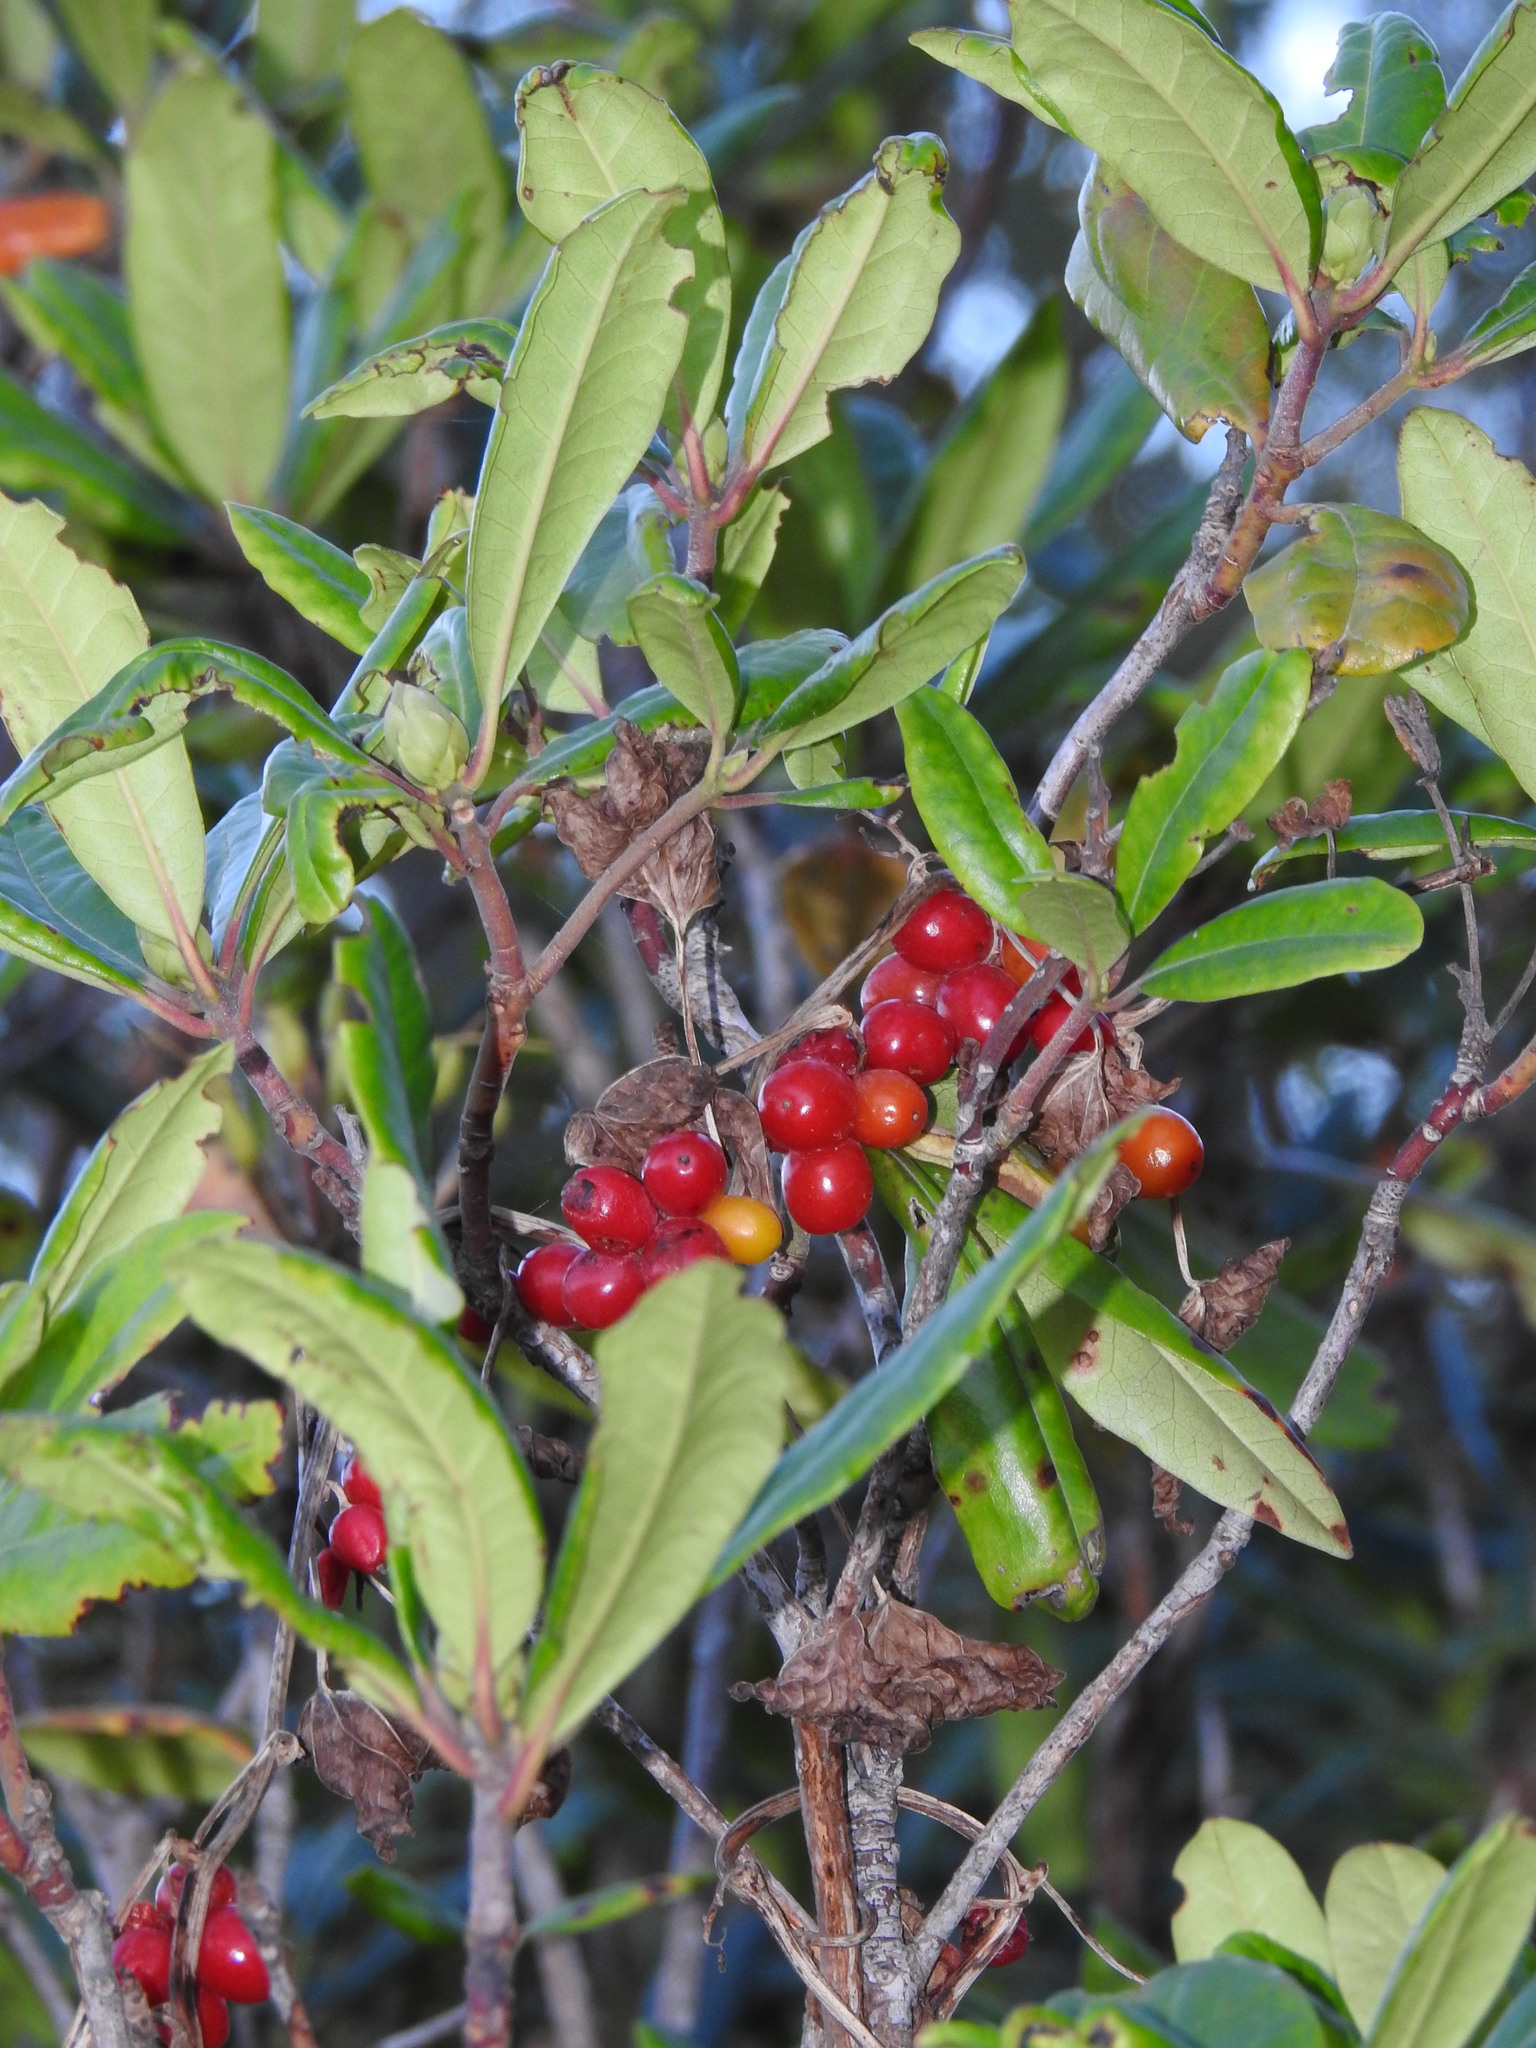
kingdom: Plantae
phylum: Tracheophyta
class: Liliopsida
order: Dioscoreales
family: Dioscoreaceae
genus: Dioscorea
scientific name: Dioscorea communis
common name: Black-bindweed
